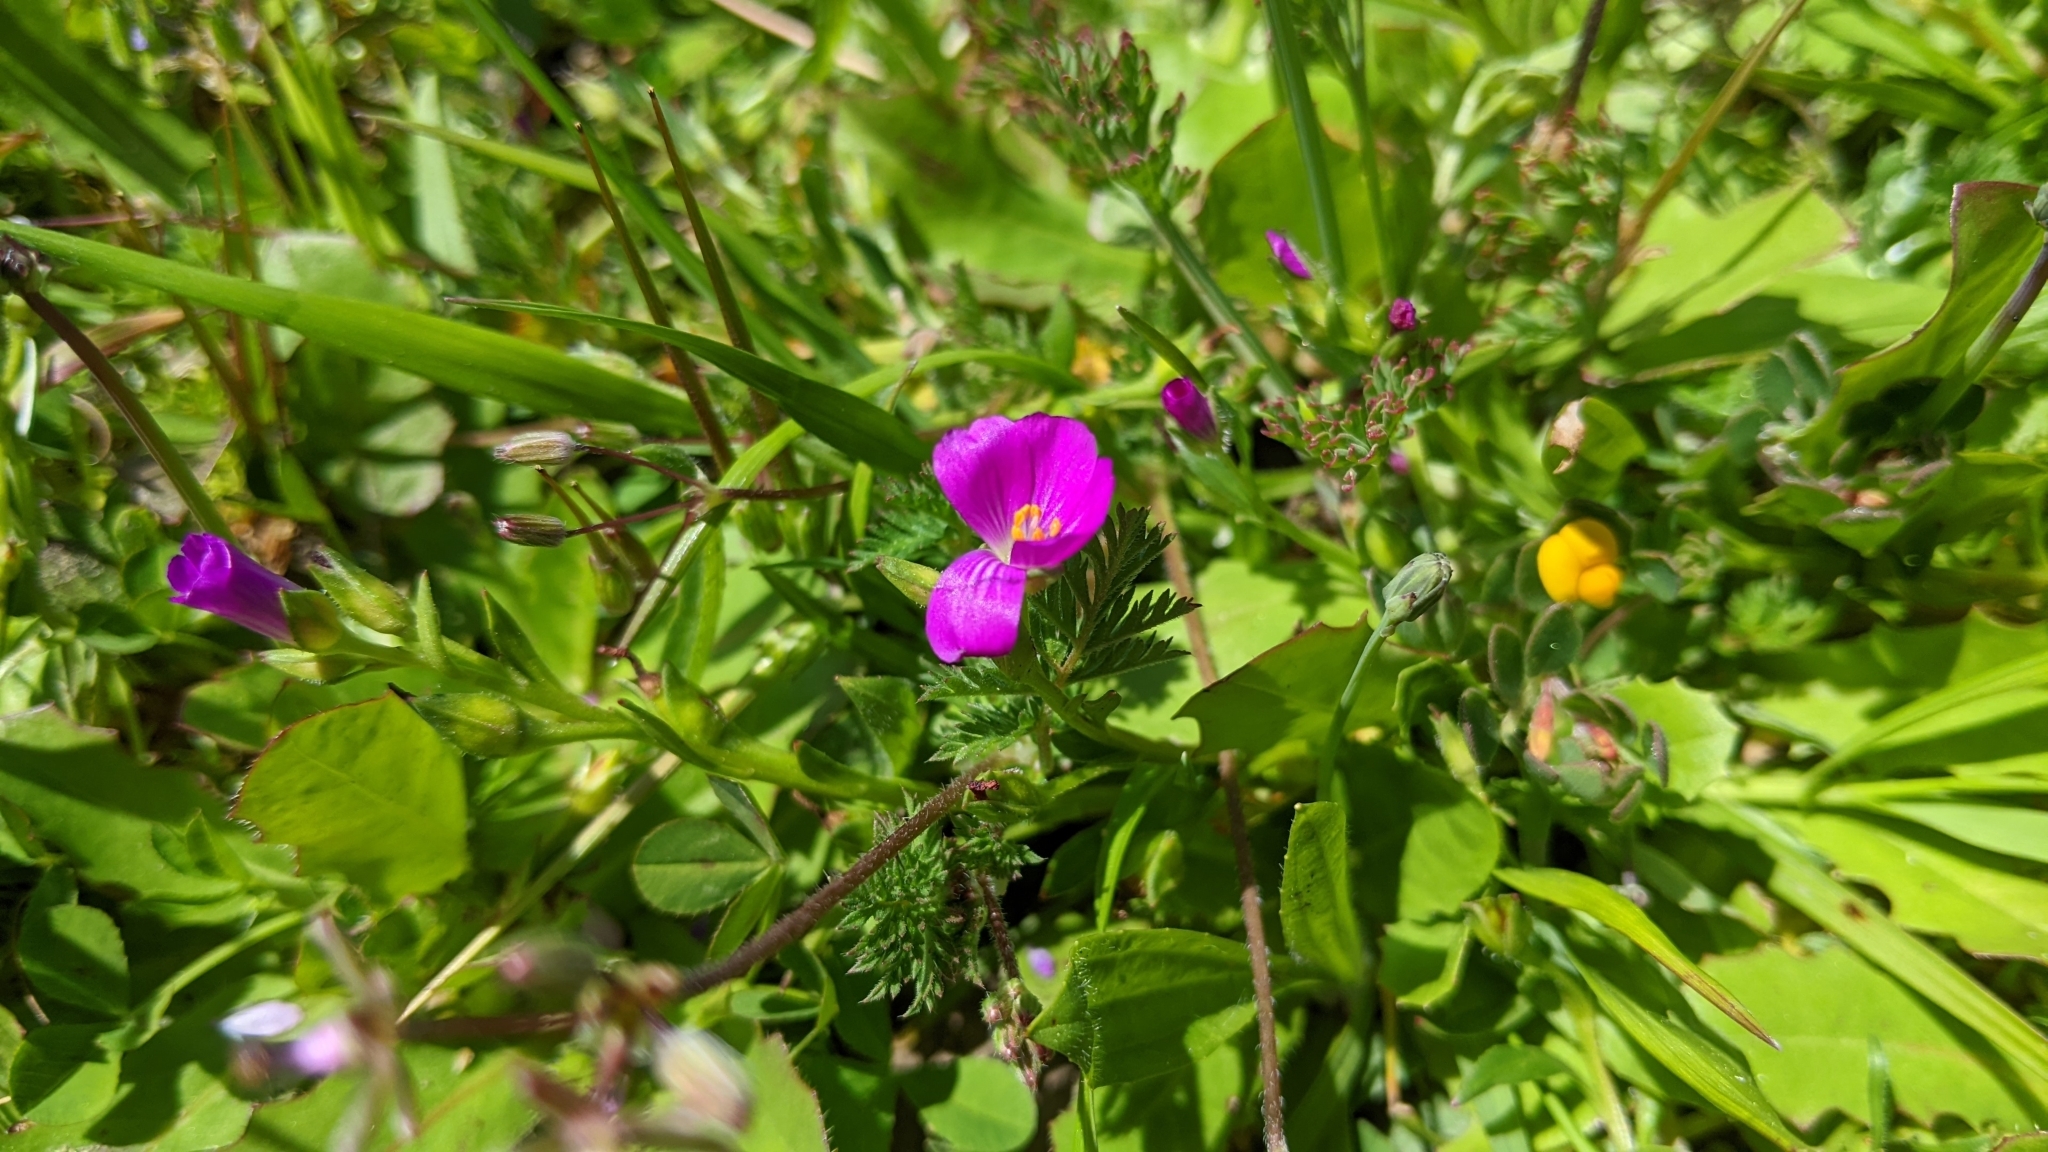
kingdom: Plantae
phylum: Tracheophyta
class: Magnoliopsida
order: Caryophyllales
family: Montiaceae
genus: Calandrinia
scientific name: Calandrinia menziesii
